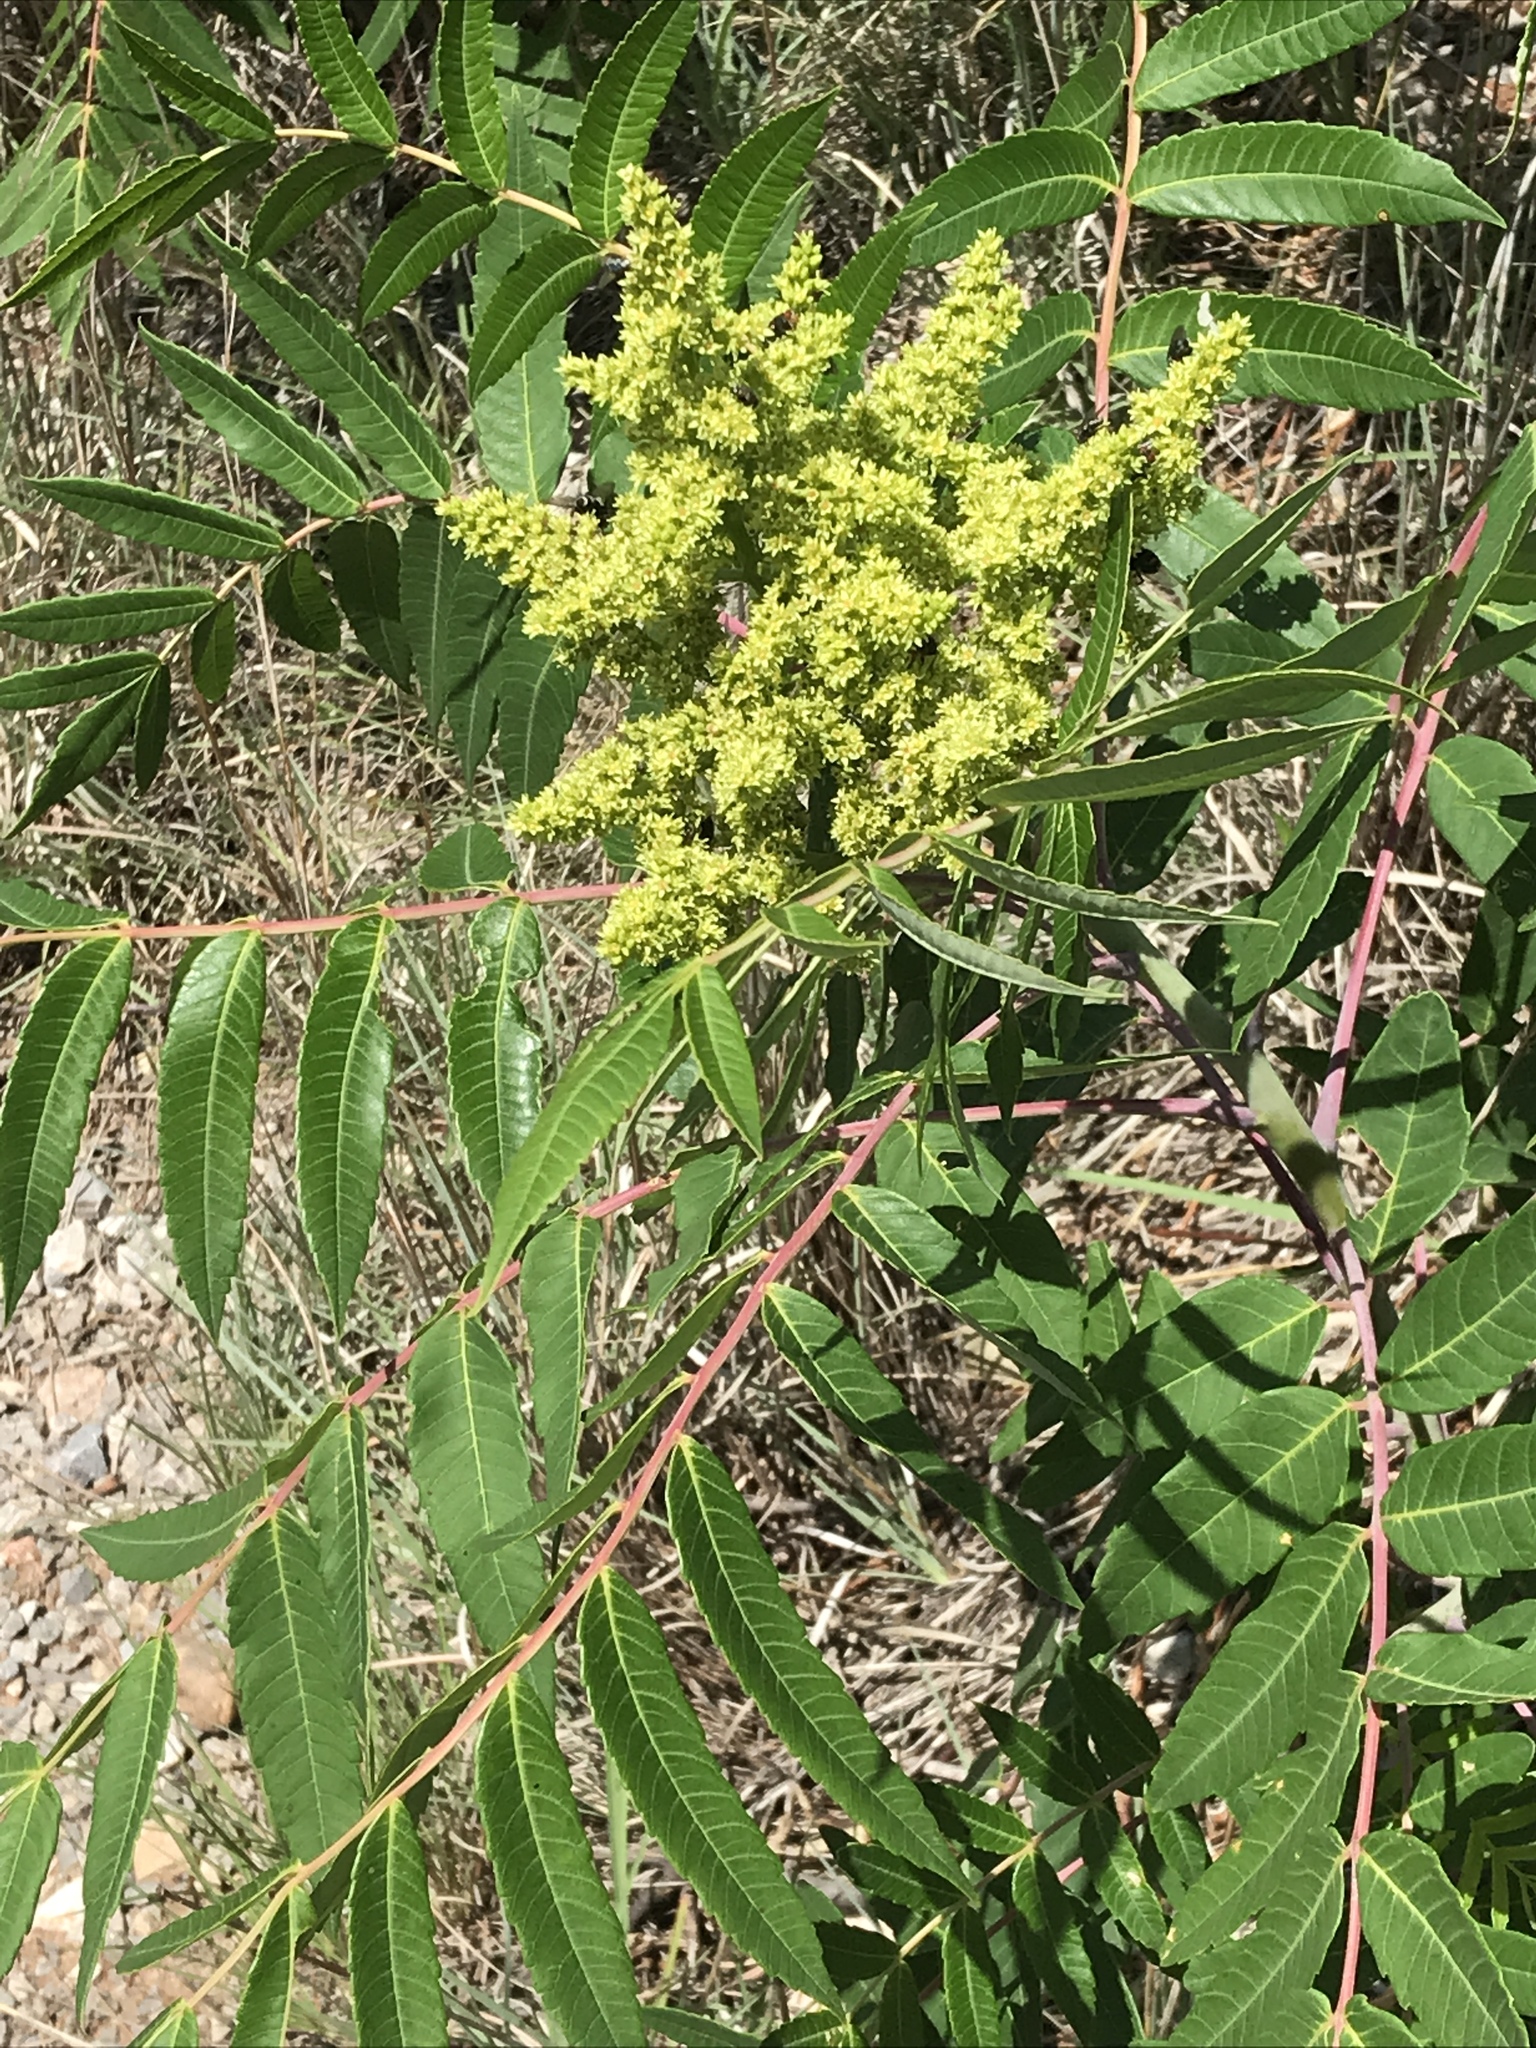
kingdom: Plantae
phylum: Tracheophyta
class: Magnoliopsida
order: Sapindales
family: Anacardiaceae
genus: Rhus
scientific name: Rhus glabra
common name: Scarlet sumac
